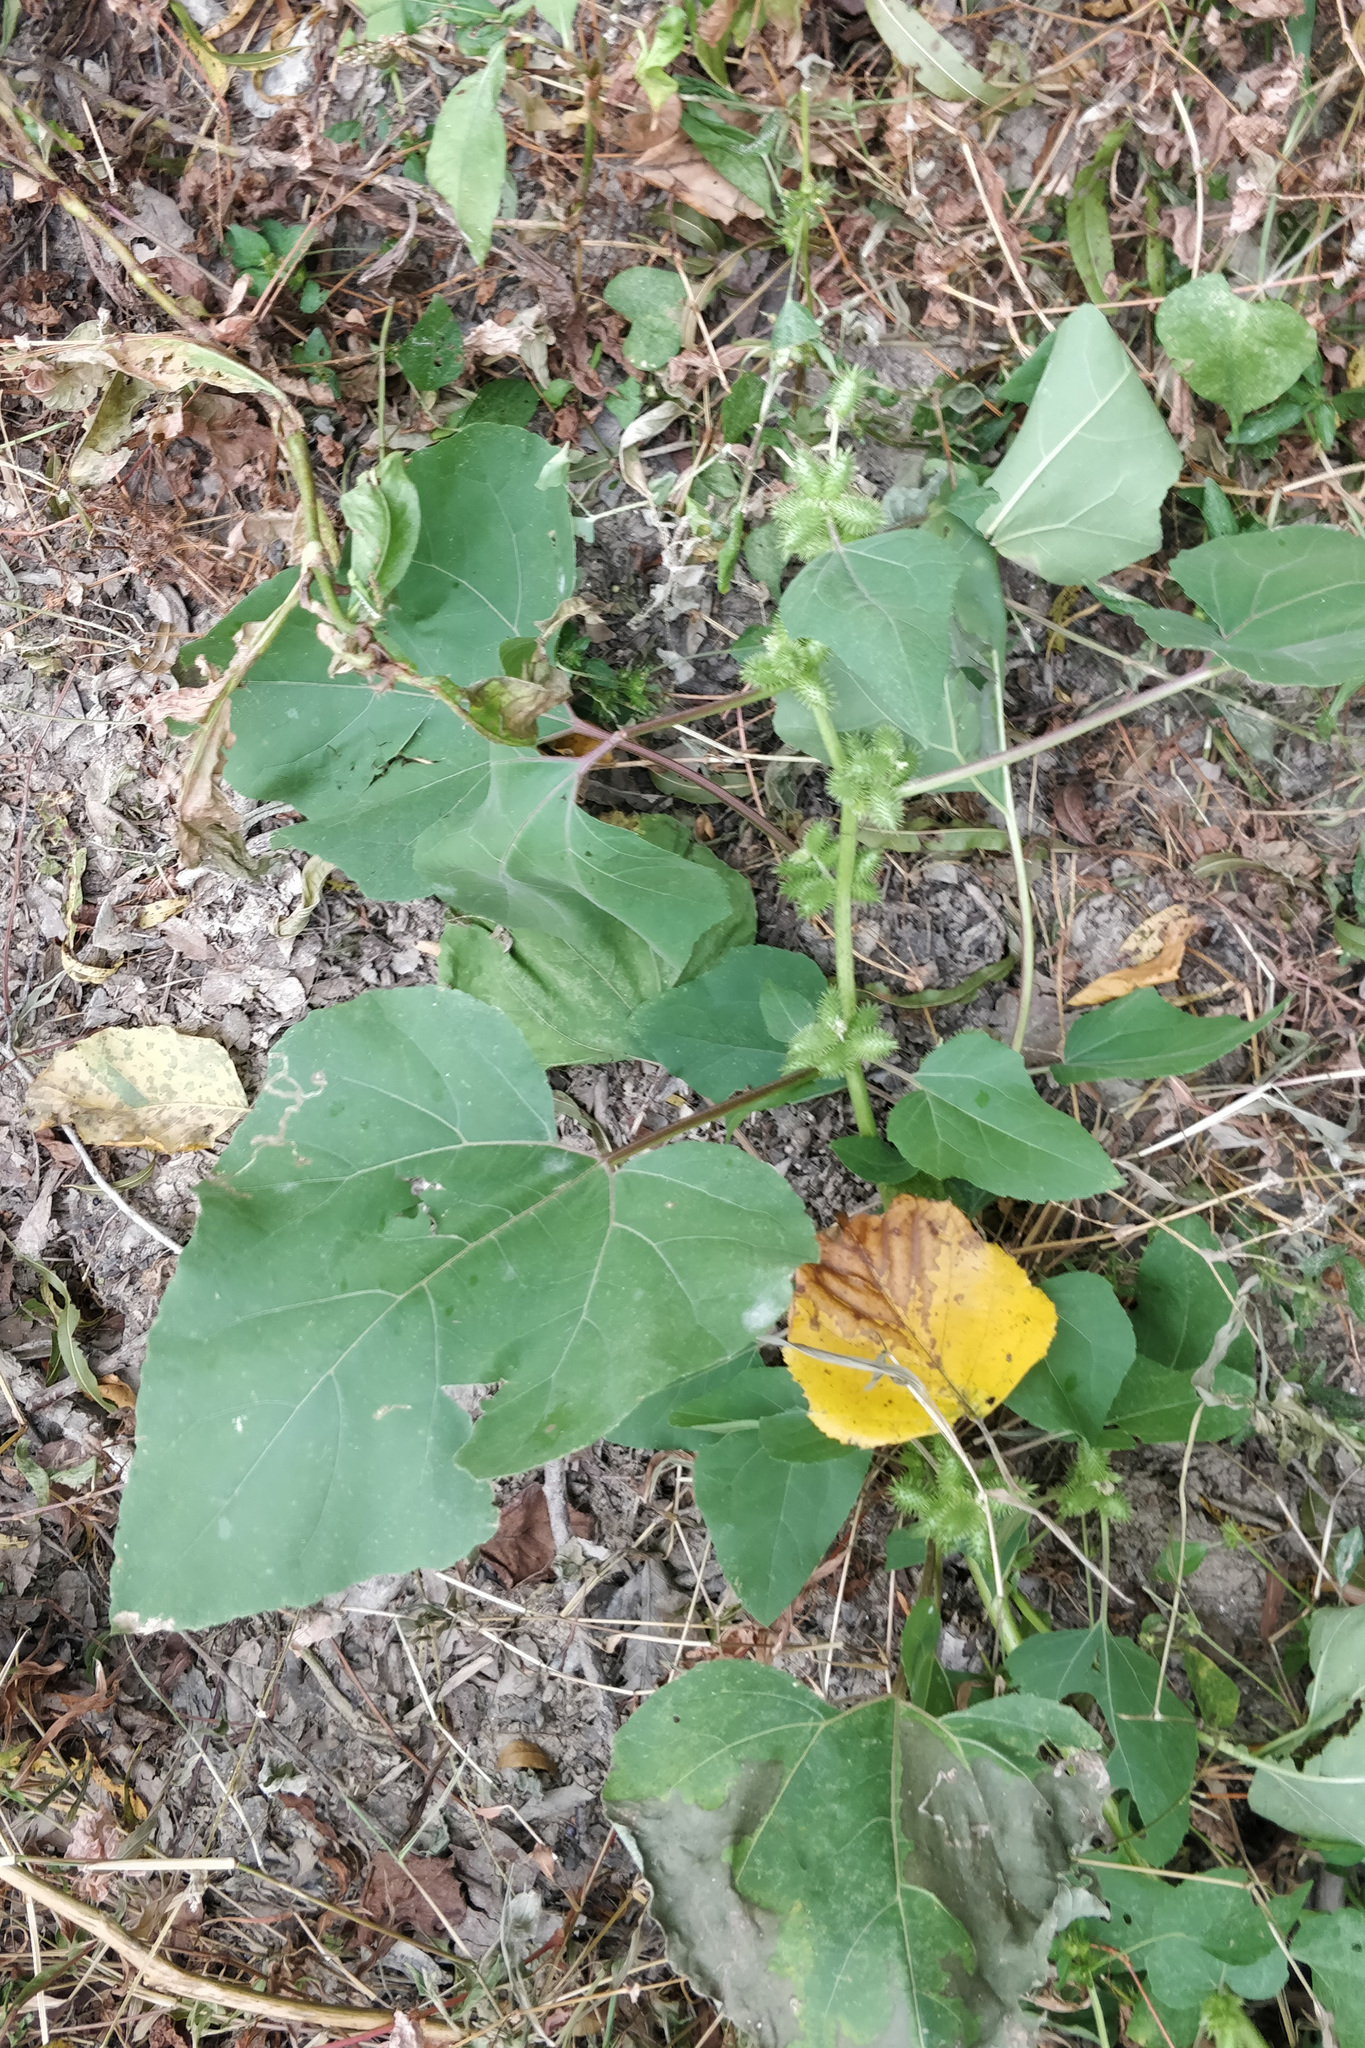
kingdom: Plantae
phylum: Tracheophyta
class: Magnoliopsida
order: Asterales
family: Asteraceae
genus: Xanthium
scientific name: Xanthium strumarium
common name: Rough cocklebur
